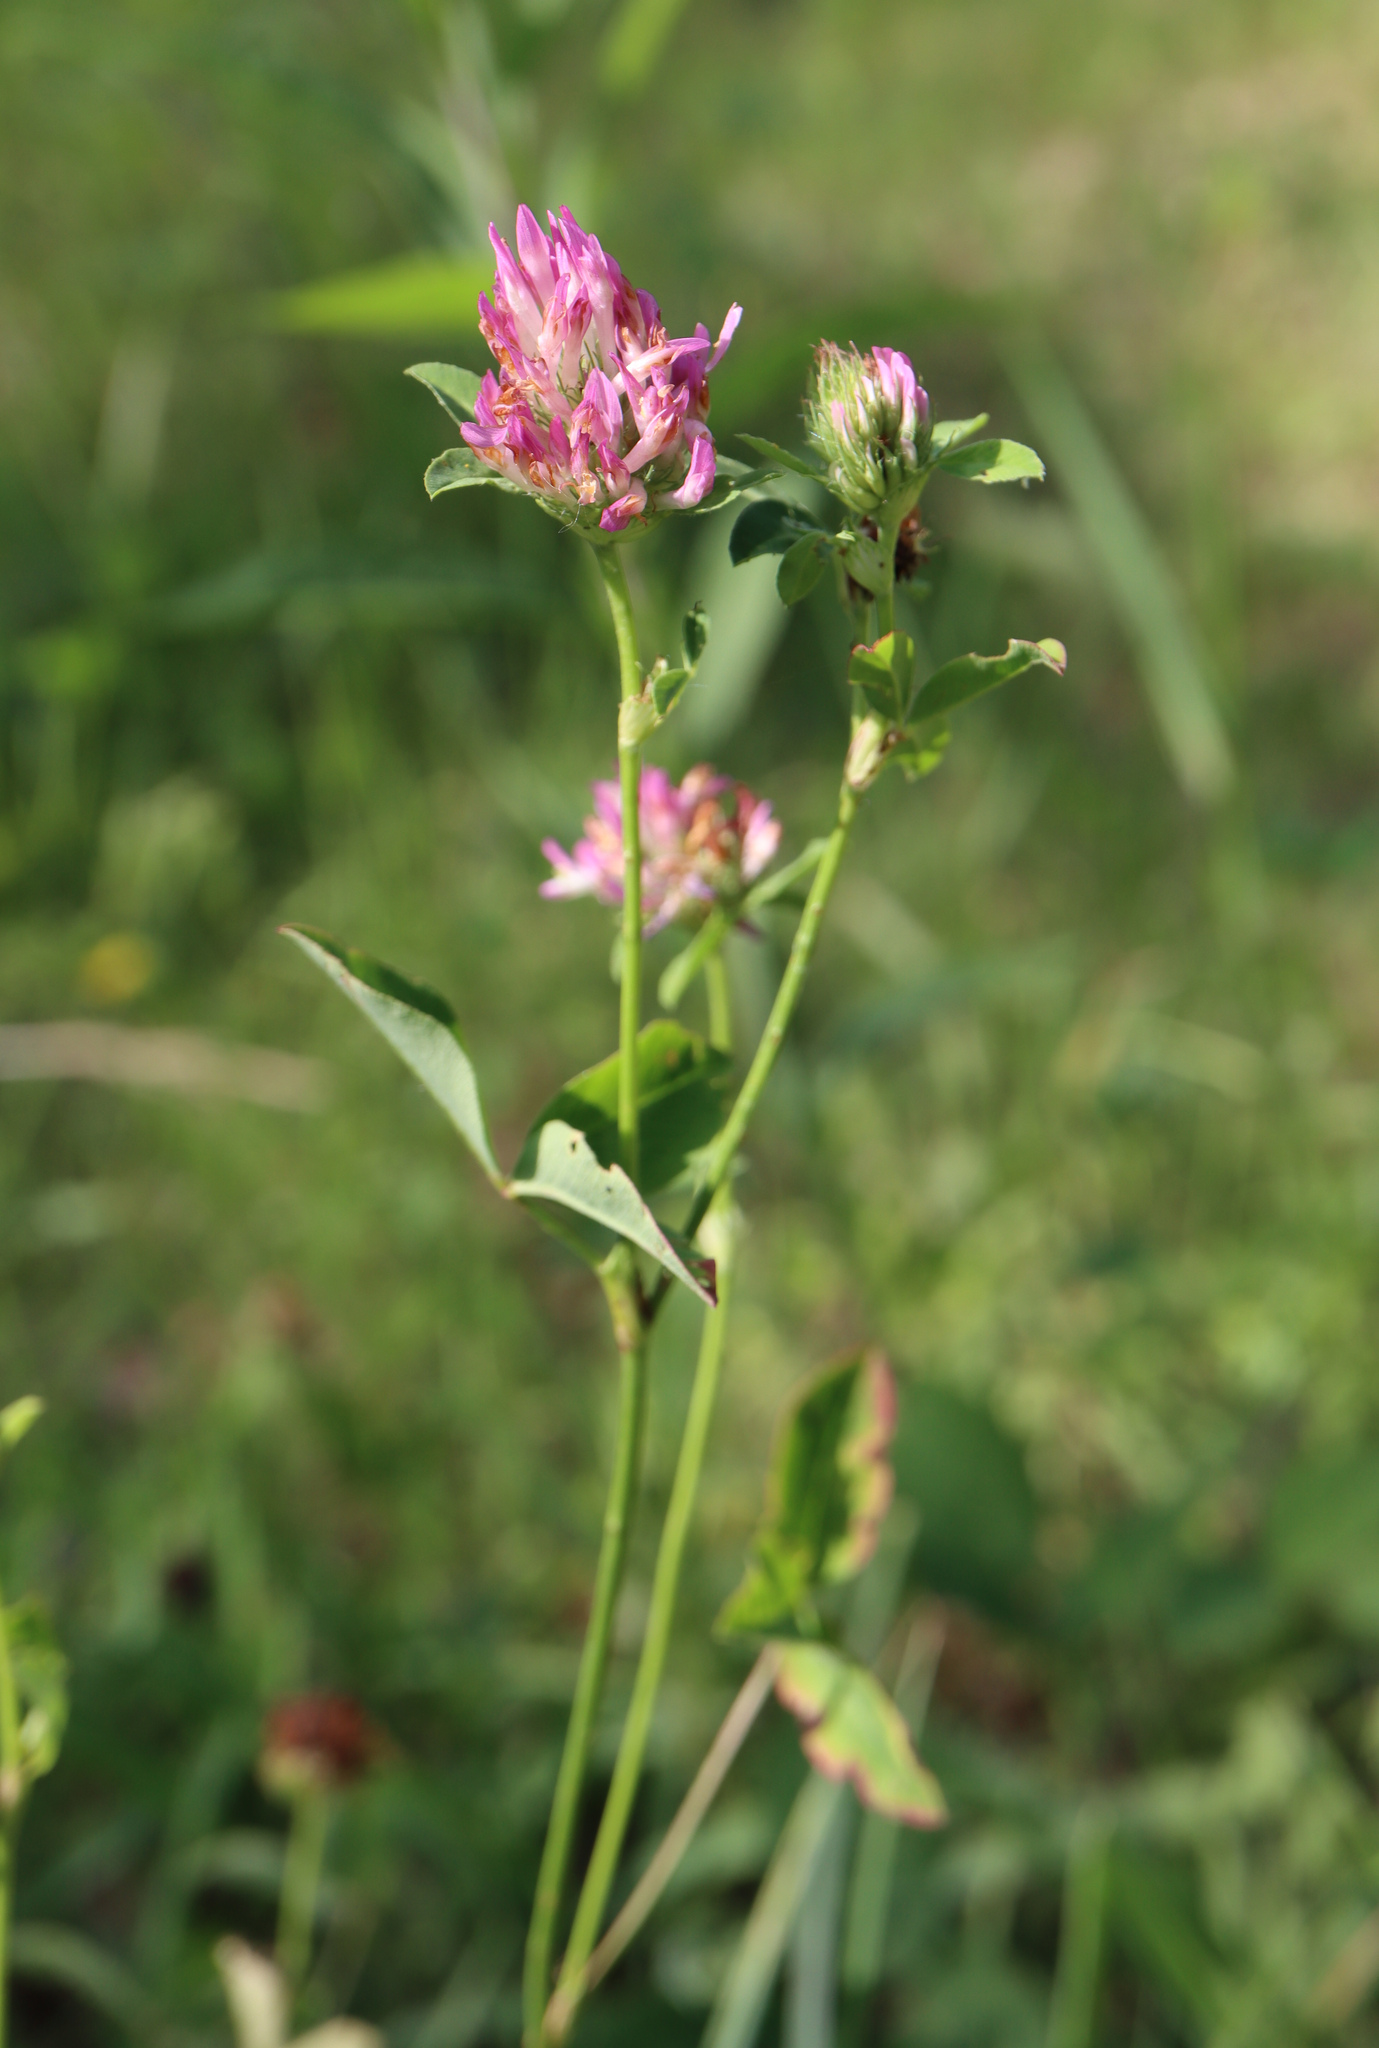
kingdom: Plantae
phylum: Tracheophyta
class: Magnoliopsida
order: Fabales
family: Fabaceae
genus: Trifolium
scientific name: Trifolium pratense
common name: Red clover
